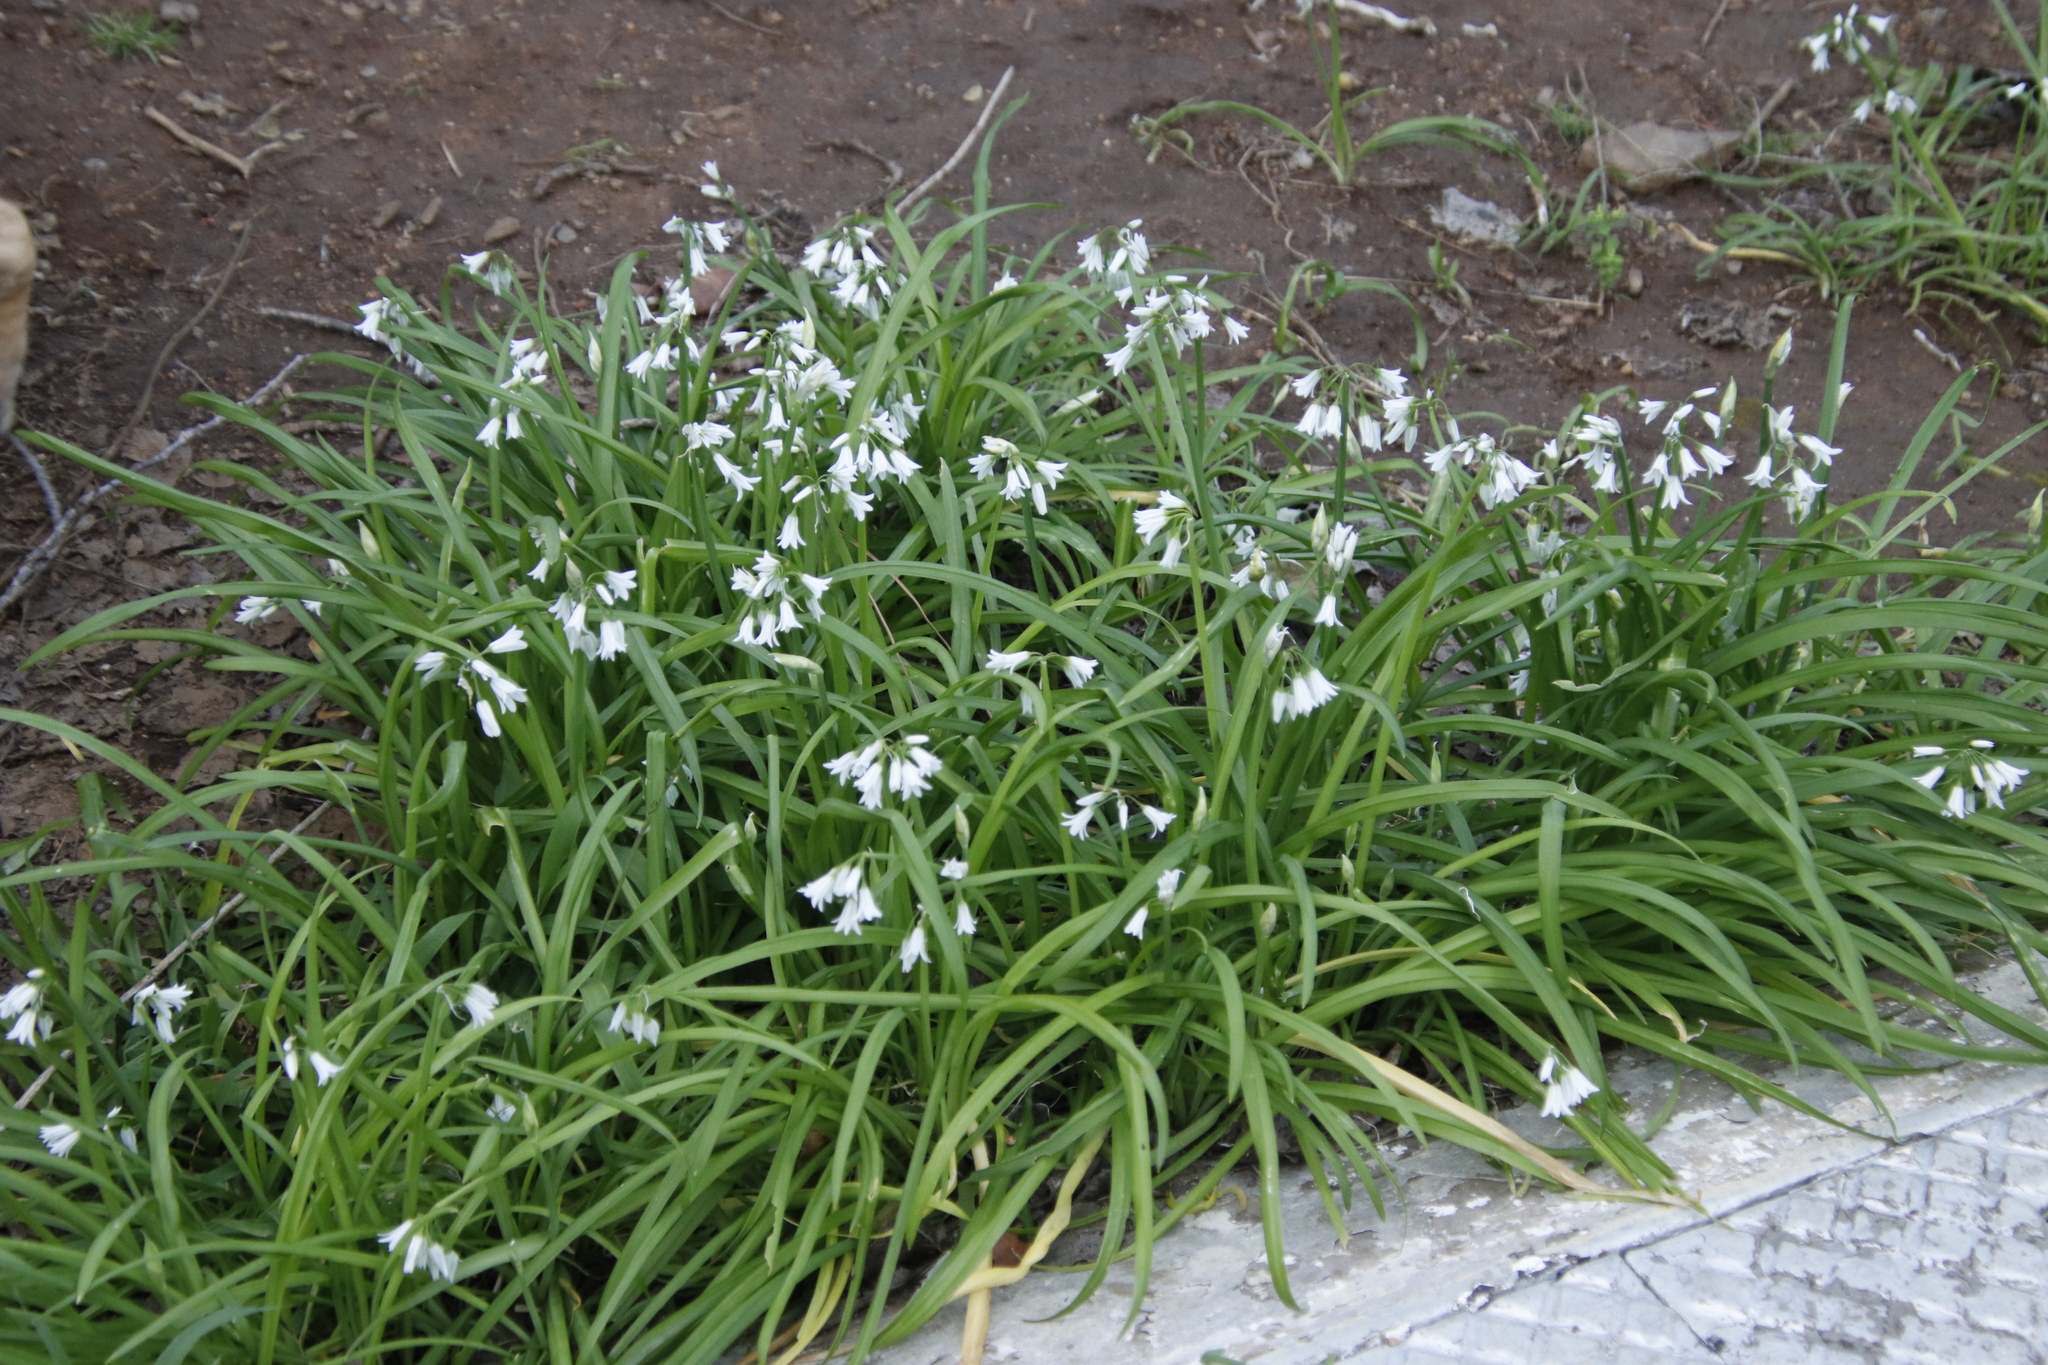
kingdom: Plantae
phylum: Tracheophyta
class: Liliopsida
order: Asparagales
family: Amaryllidaceae
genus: Allium
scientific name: Allium triquetrum
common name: Three-cornered garlic
